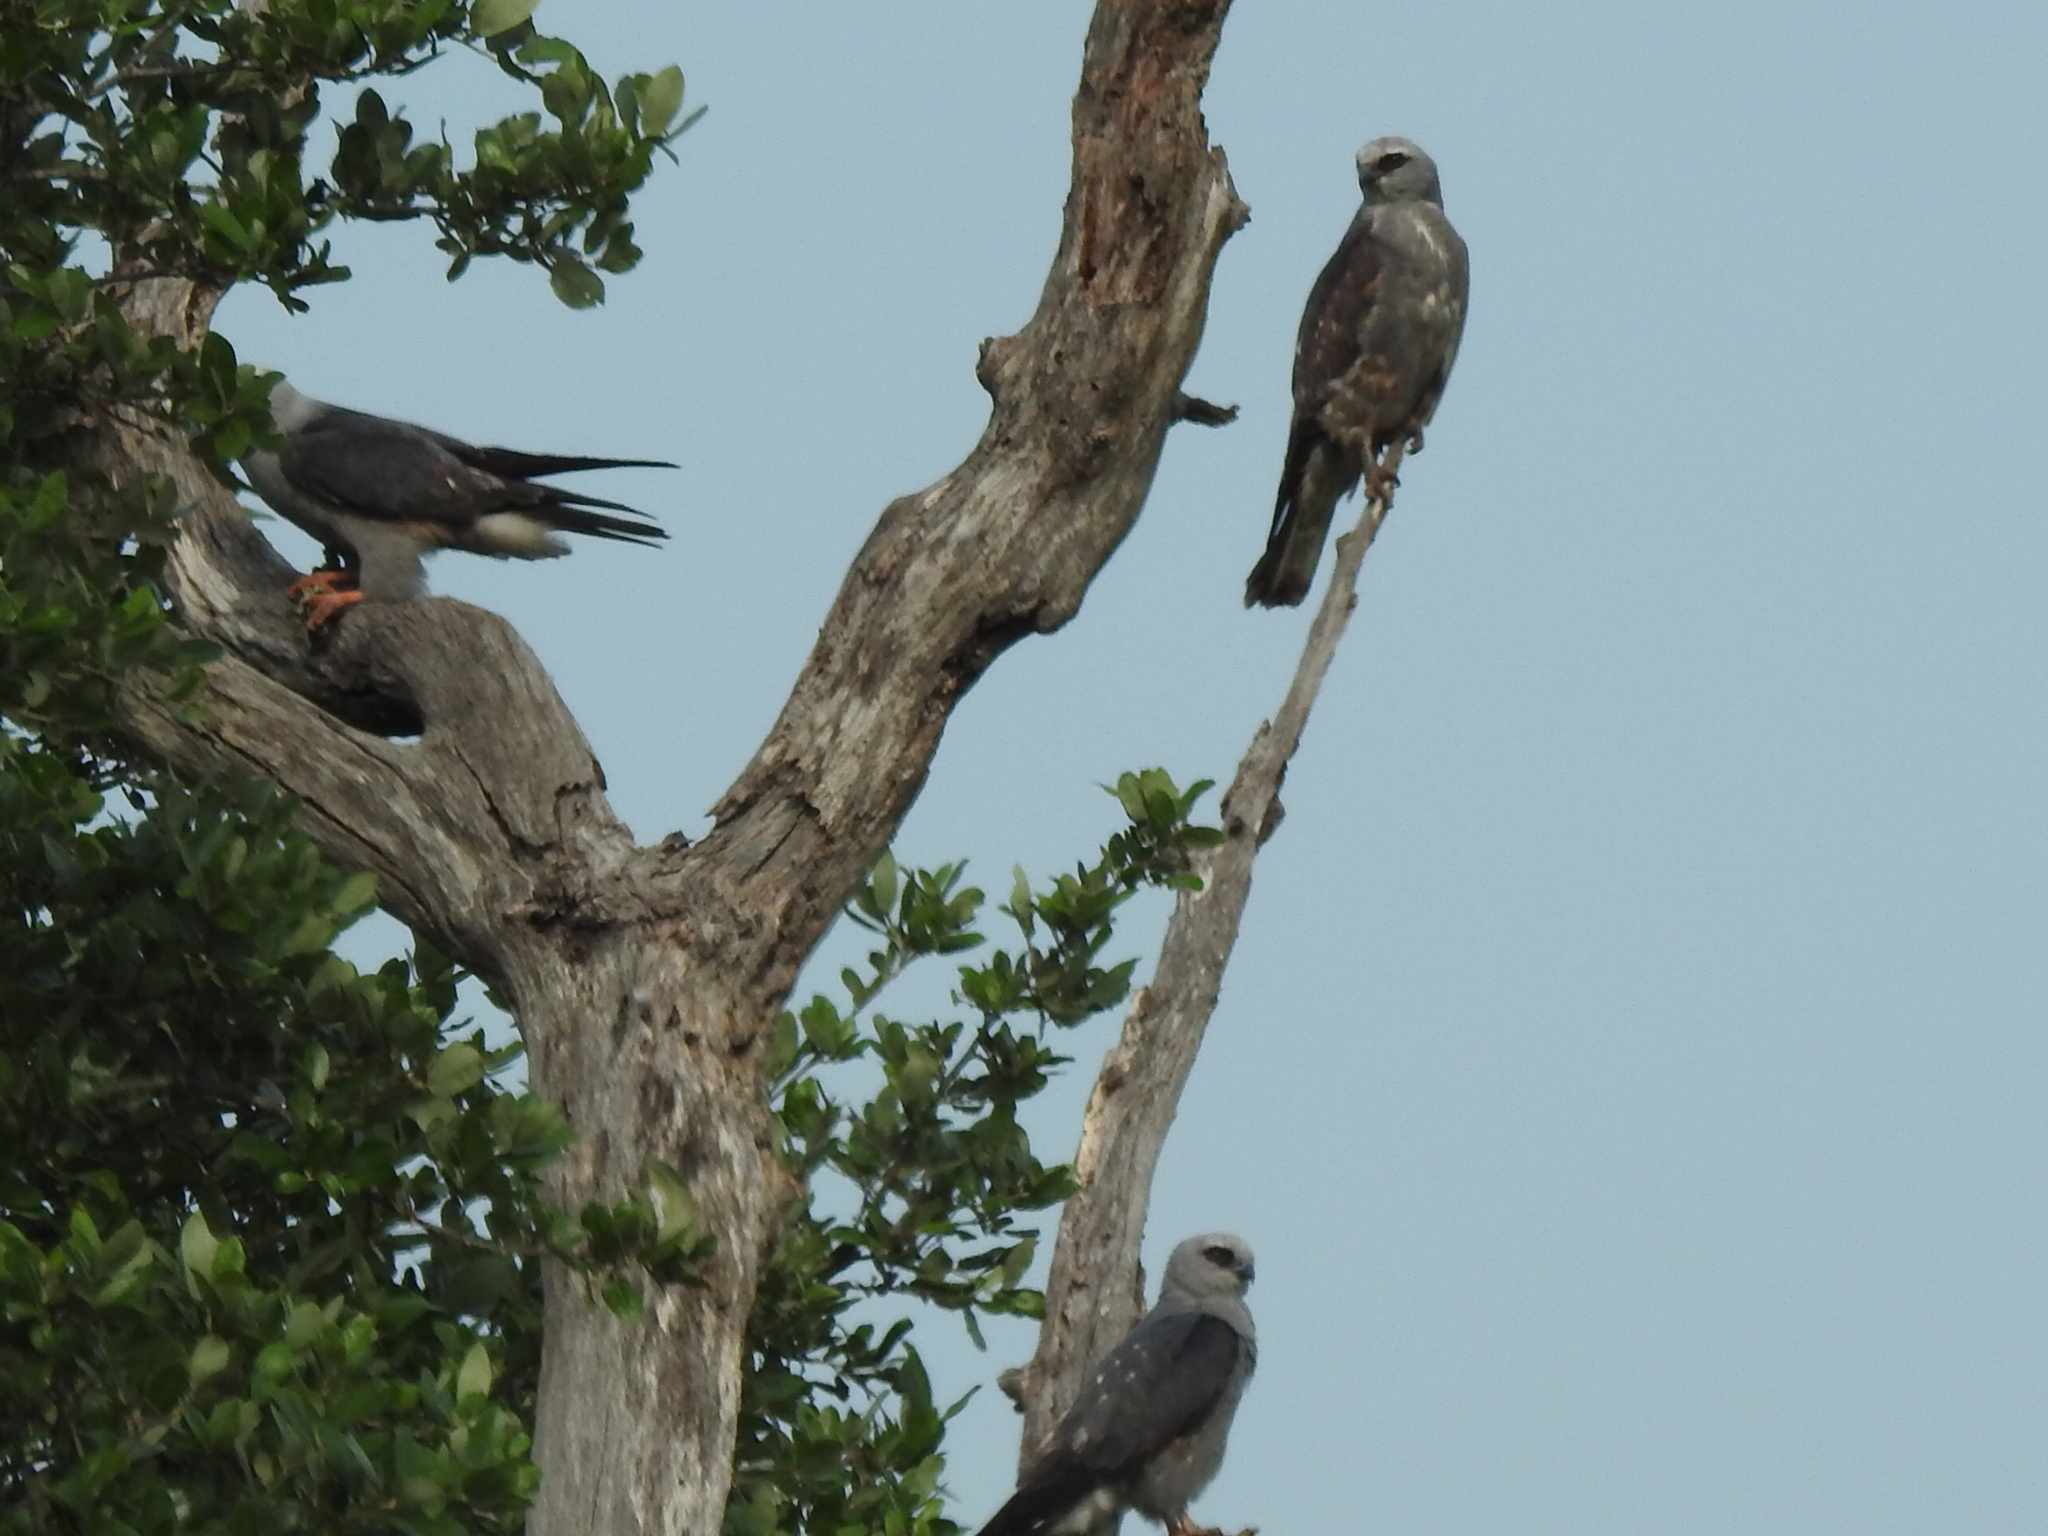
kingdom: Animalia
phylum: Chordata
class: Aves
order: Accipitriformes
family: Accipitridae
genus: Ictinia
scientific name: Ictinia mississippiensis
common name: Mississippi kite
